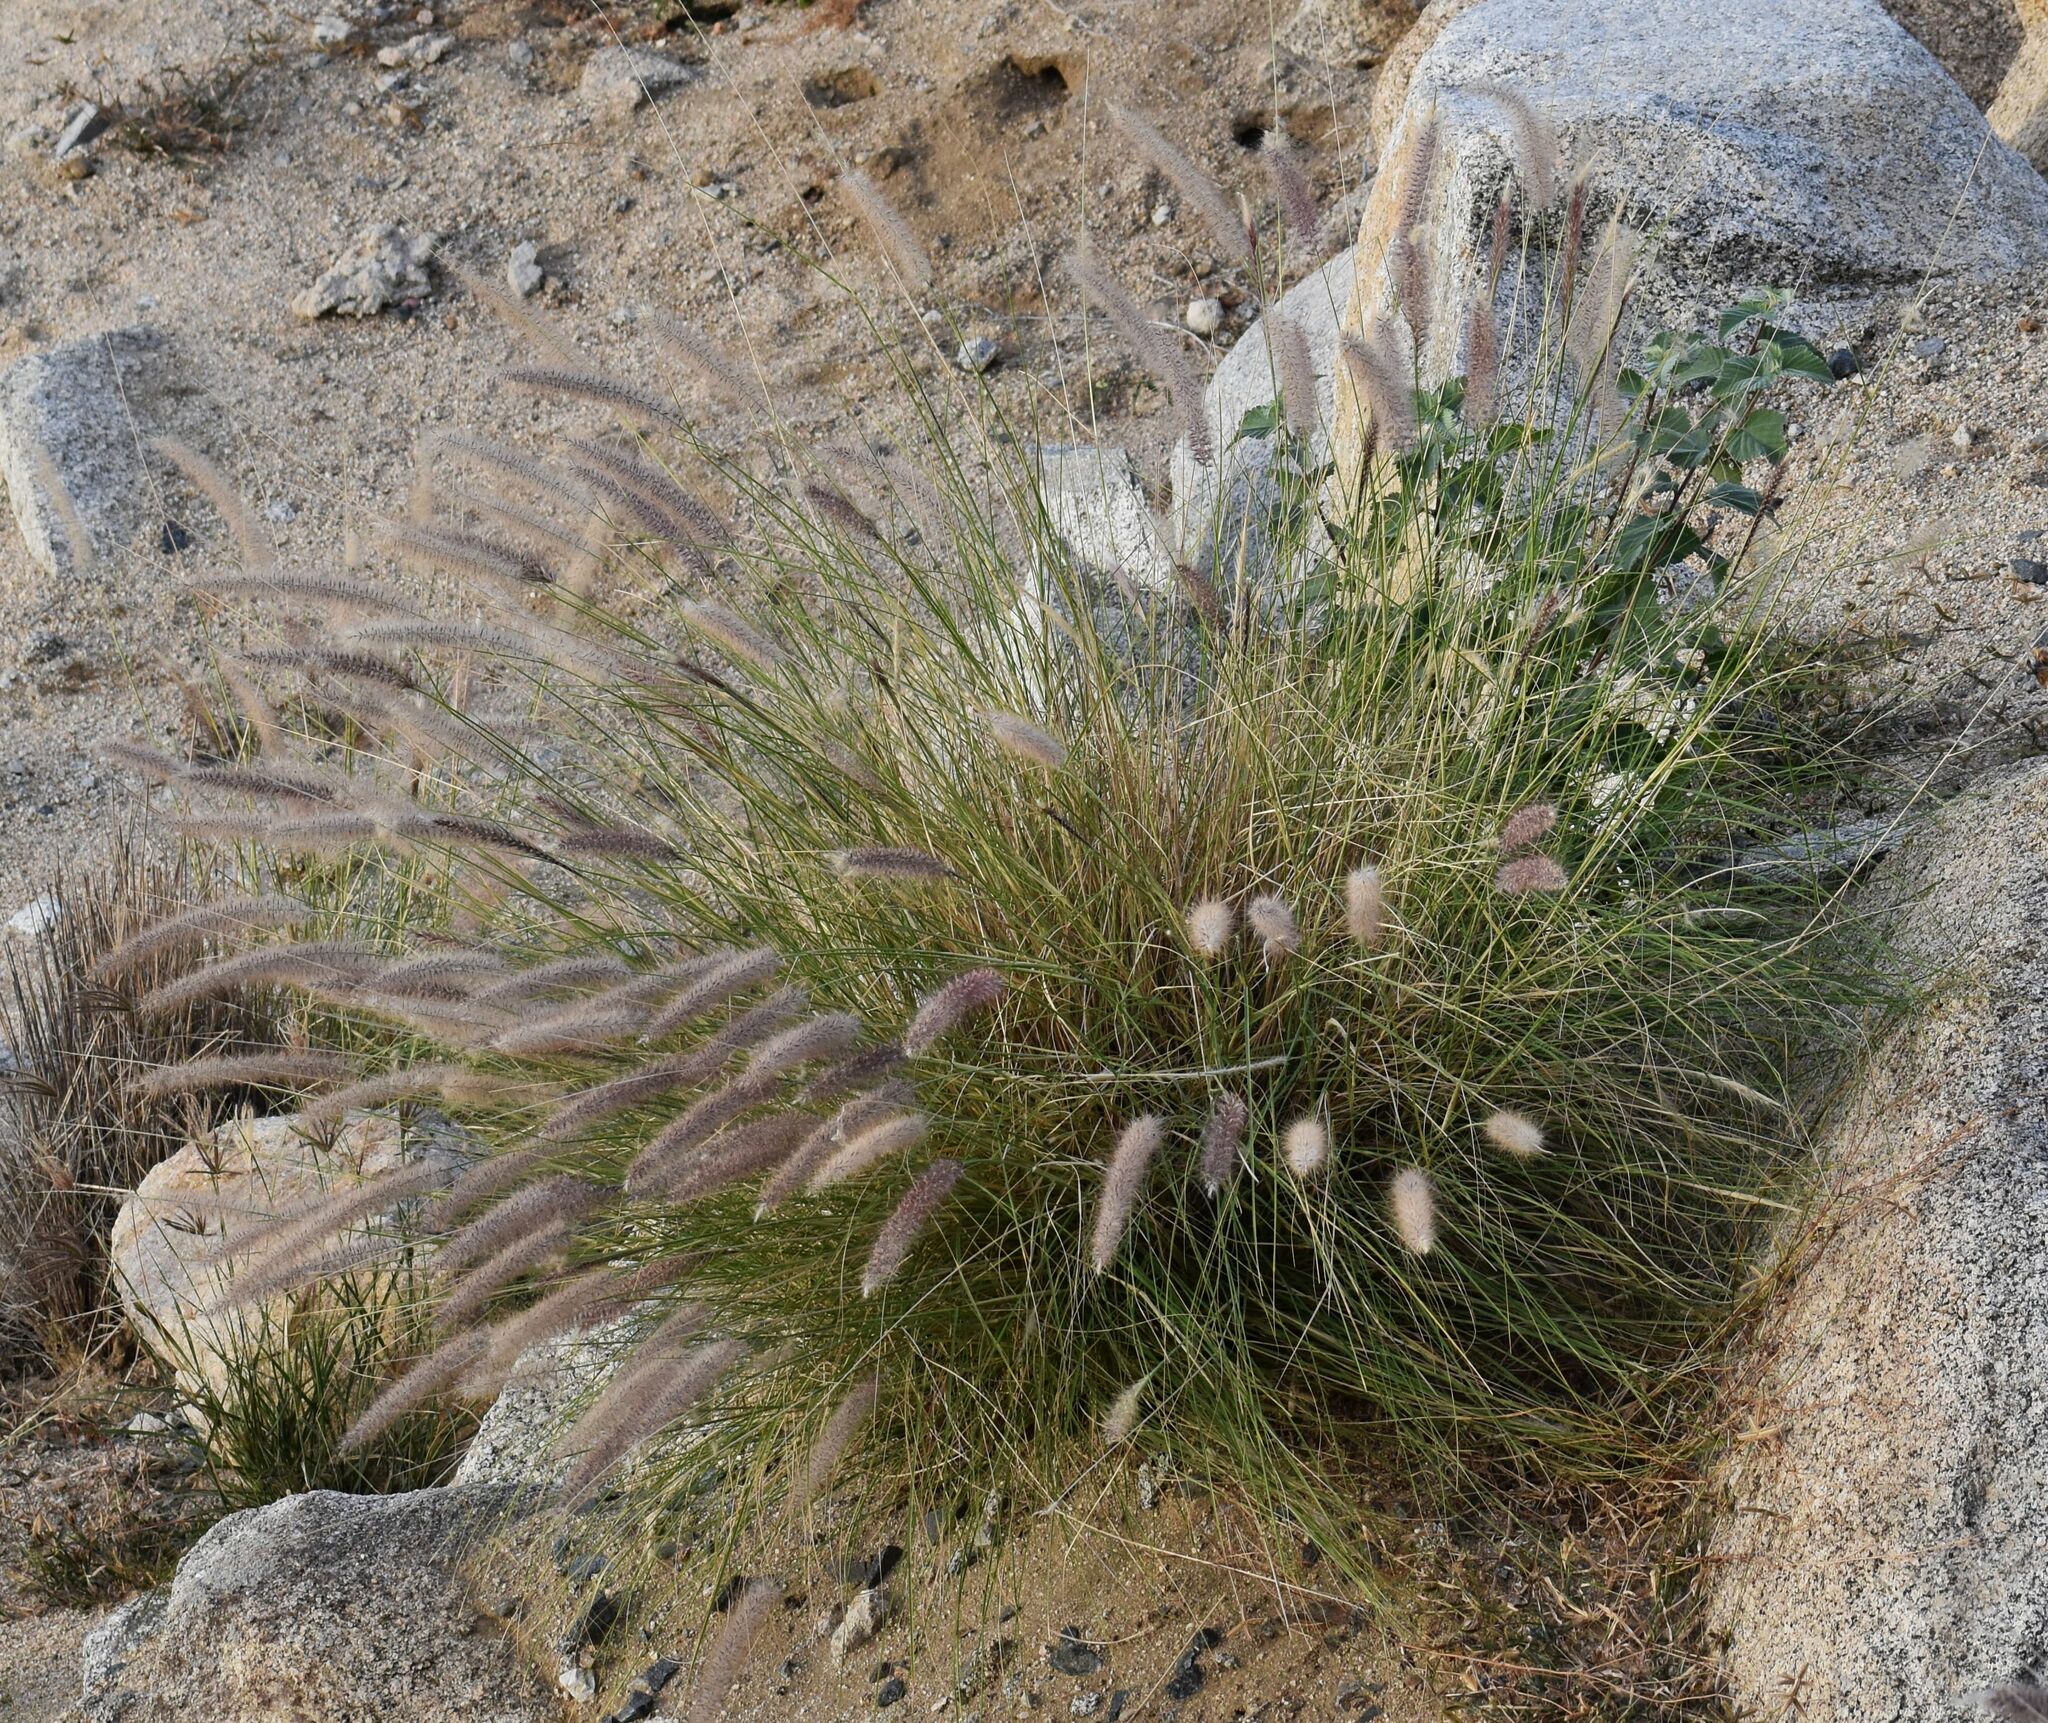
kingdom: Plantae
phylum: Tracheophyta
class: Liliopsida
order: Poales
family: Poaceae
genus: Cenchrus
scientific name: Cenchrus setaceus
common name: Crimson fountaingrass
